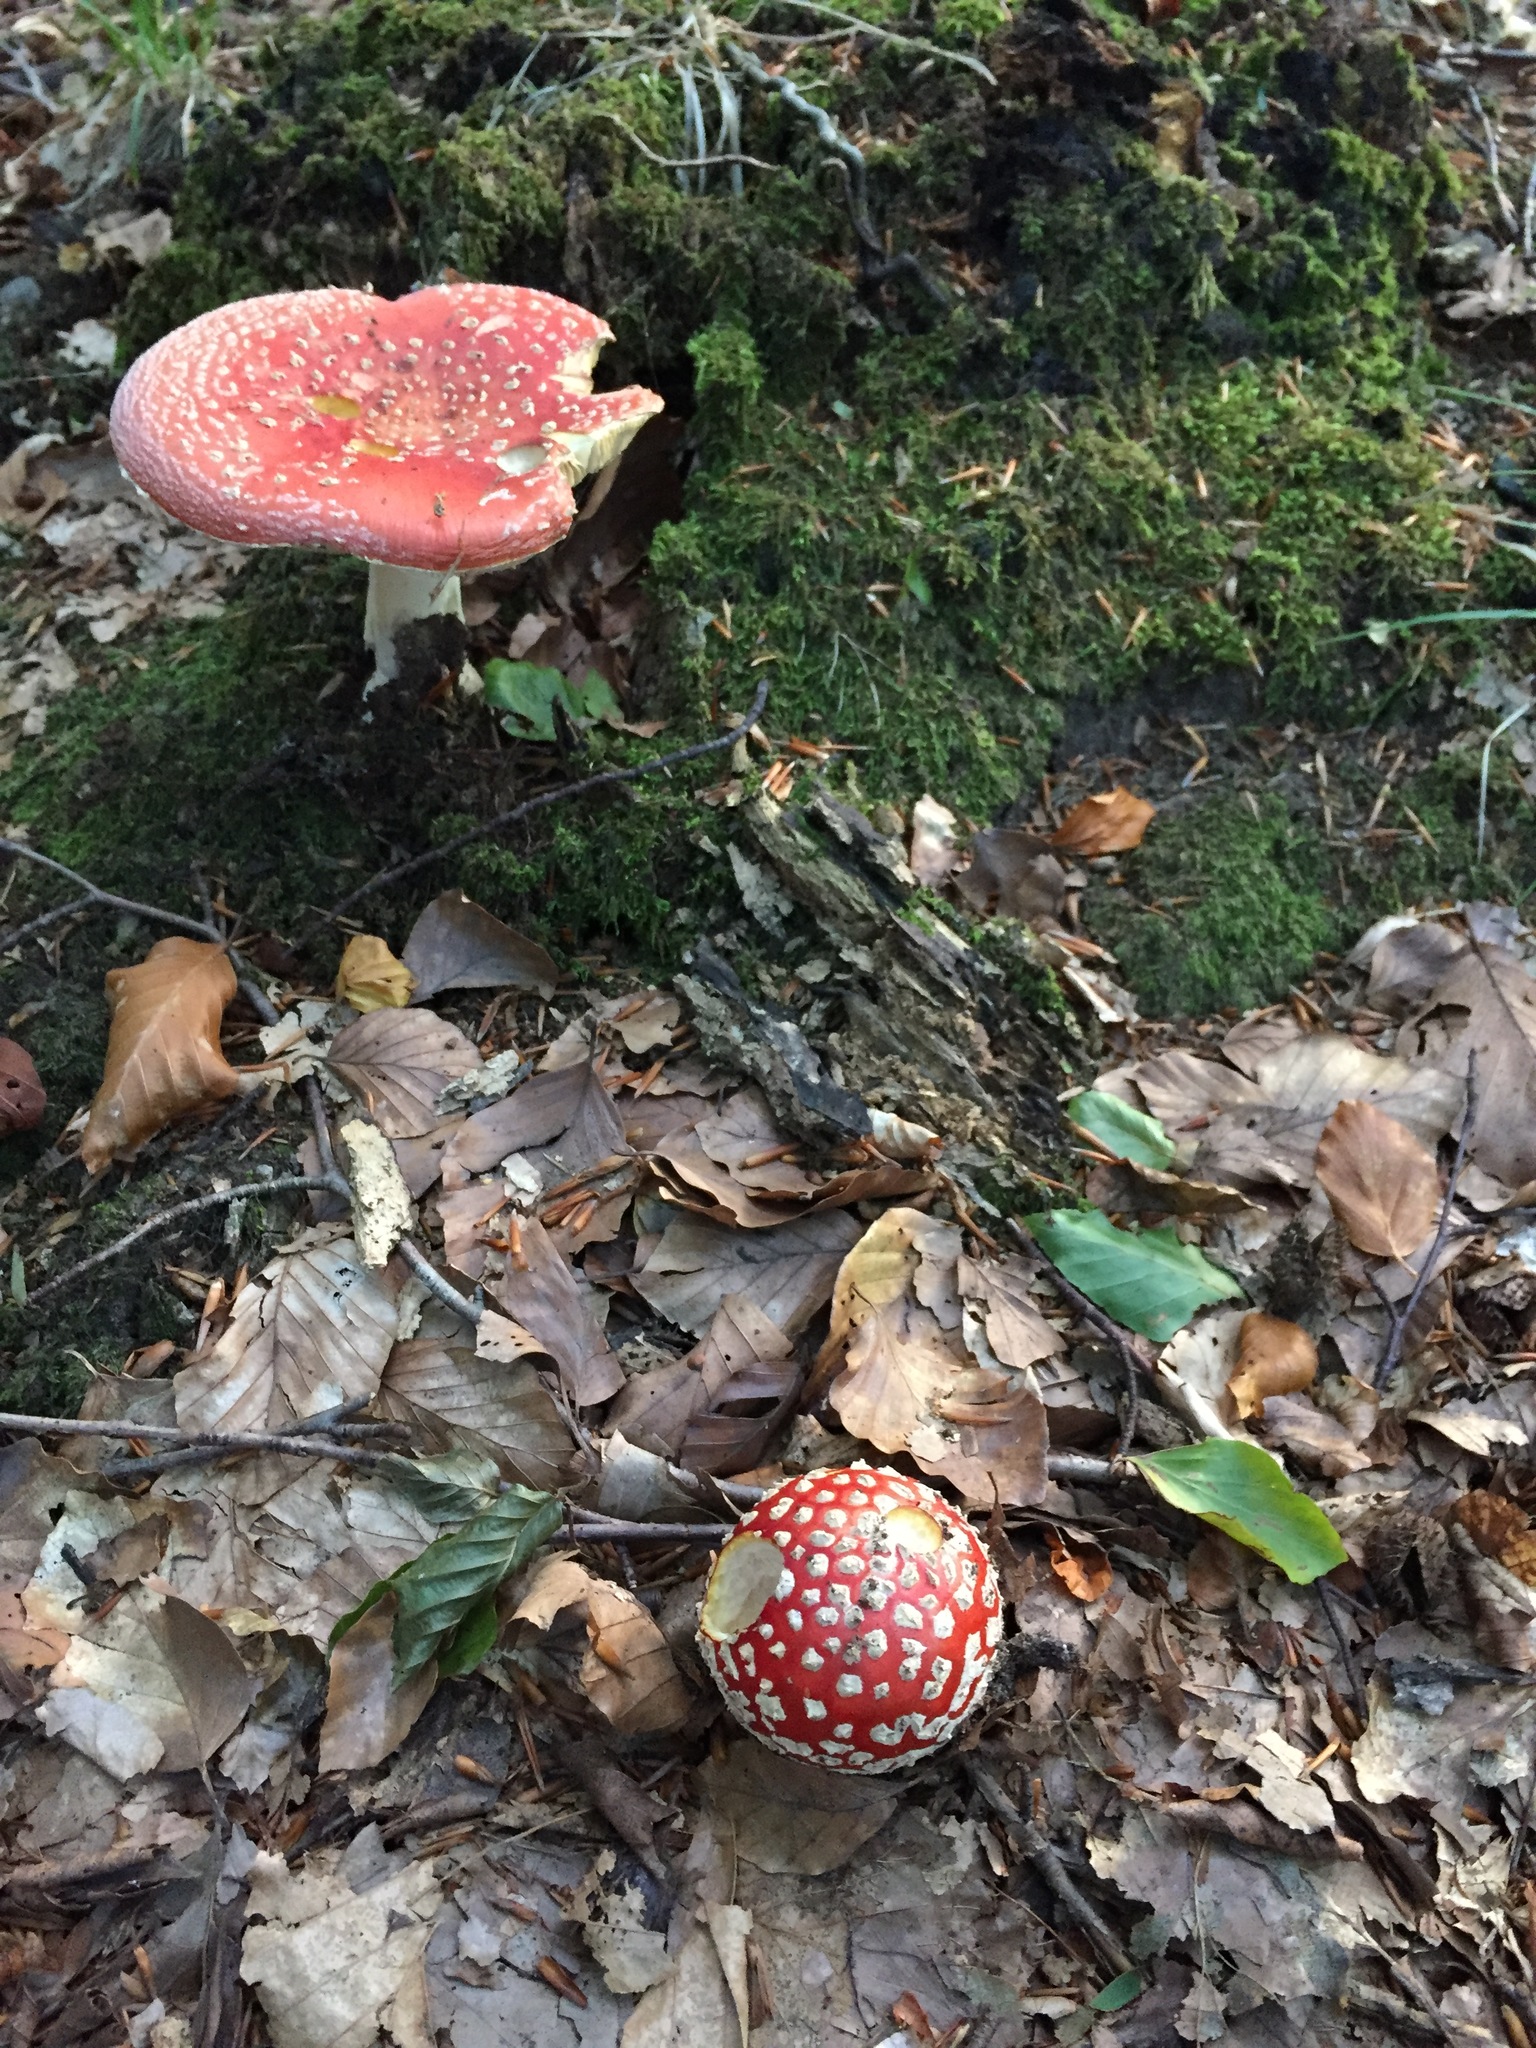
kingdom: Fungi
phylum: Basidiomycota
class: Agaricomycetes
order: Agaricales
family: Amanitaceae
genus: Amanita
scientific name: Amanita muscaria
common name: Fly agaric
